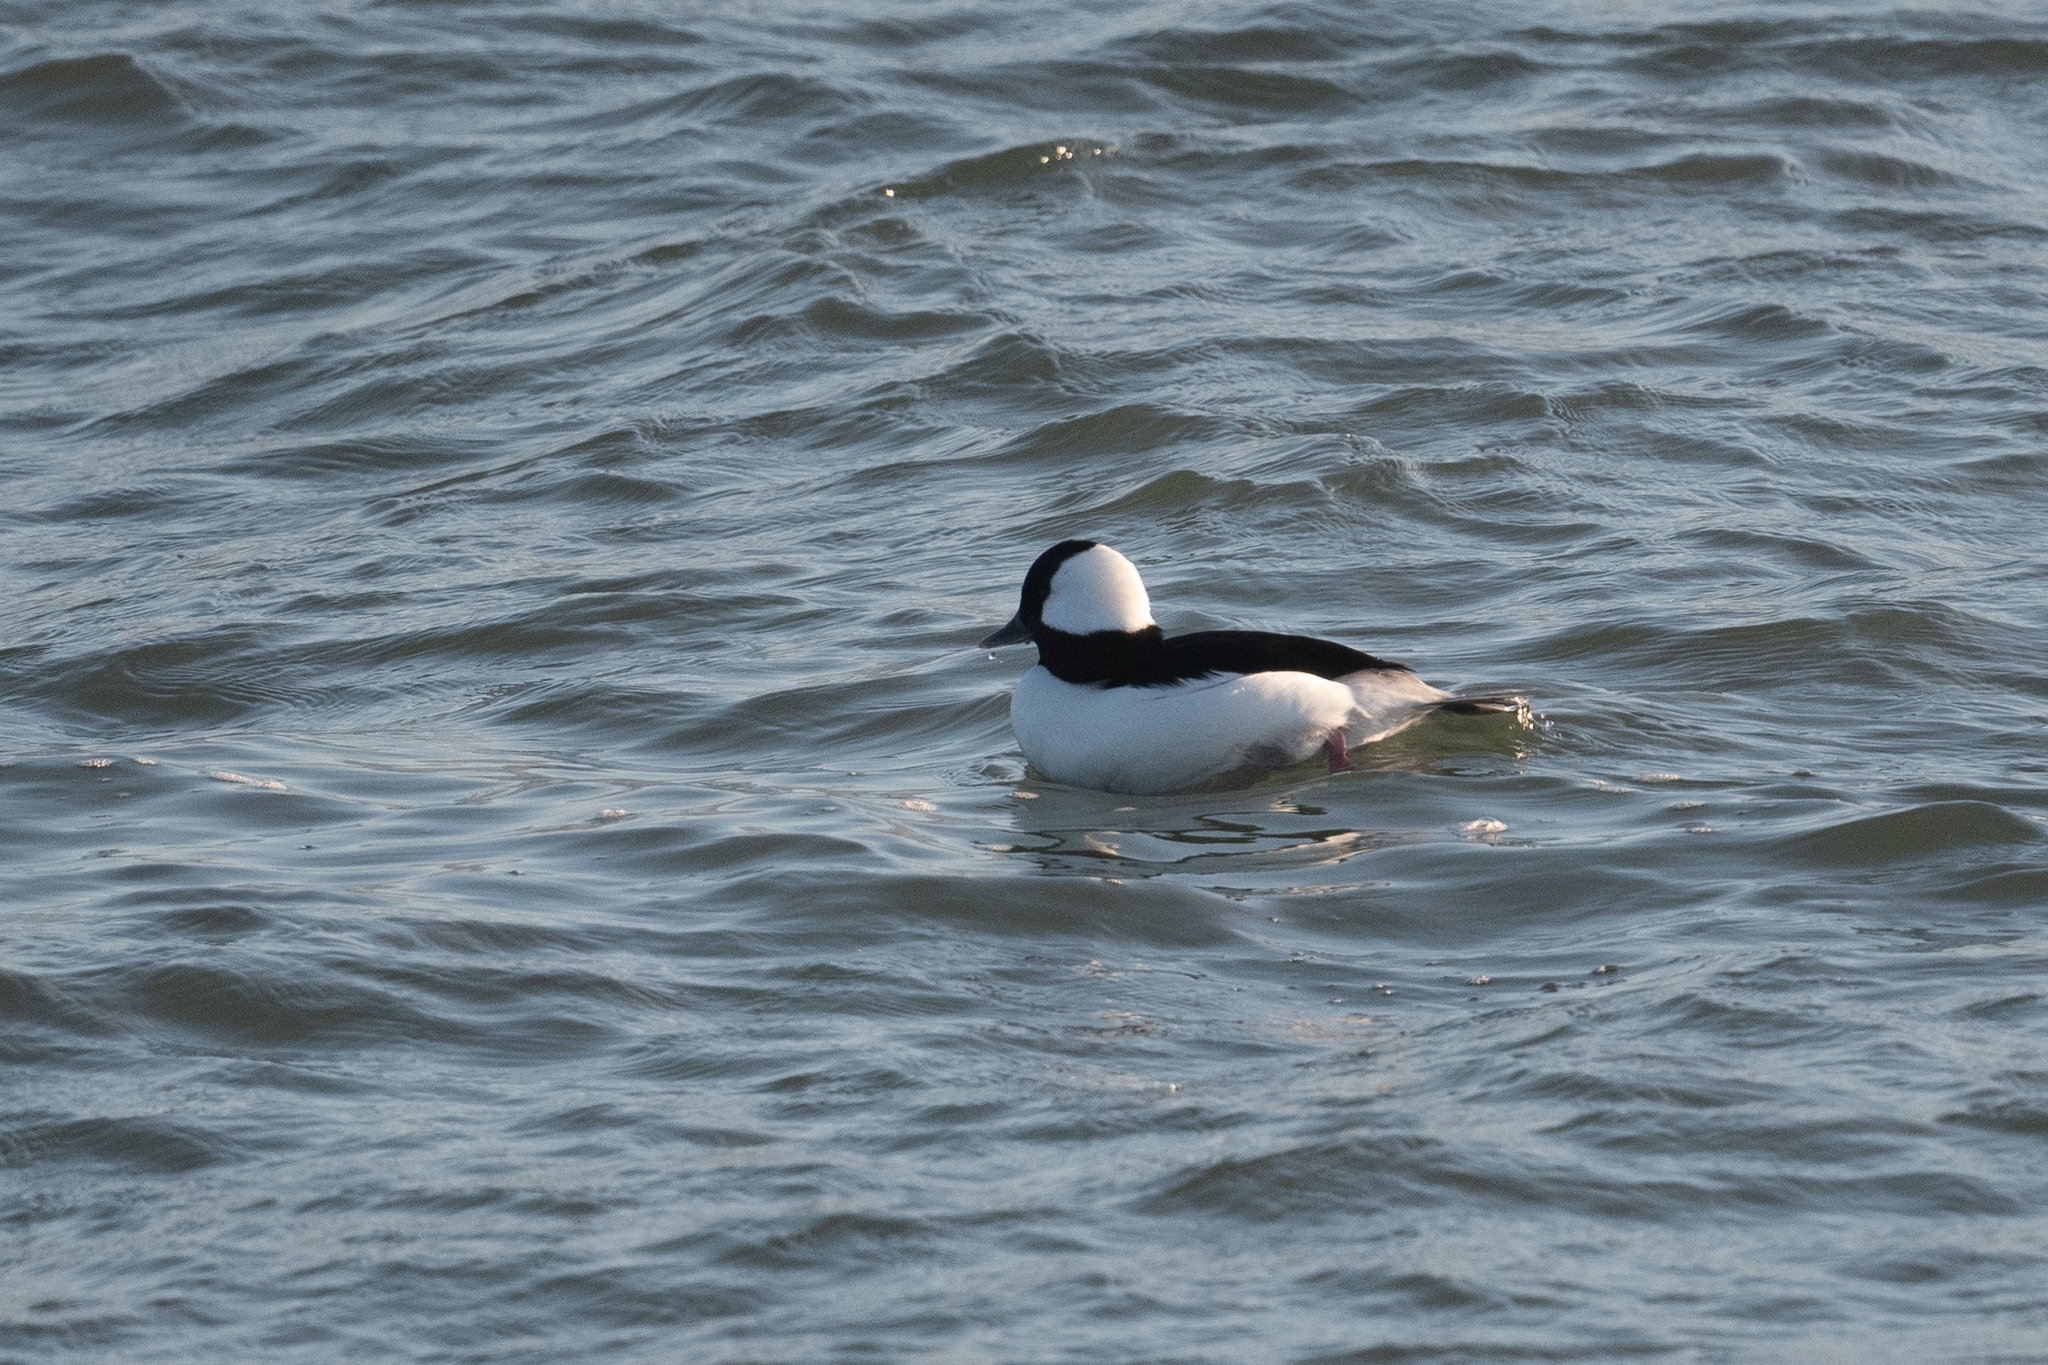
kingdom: Animalia
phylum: Chordata
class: Aves
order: Anseriformes
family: Anatidae
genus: Bucephala
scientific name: Bucephala albeola
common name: Bufflehead
